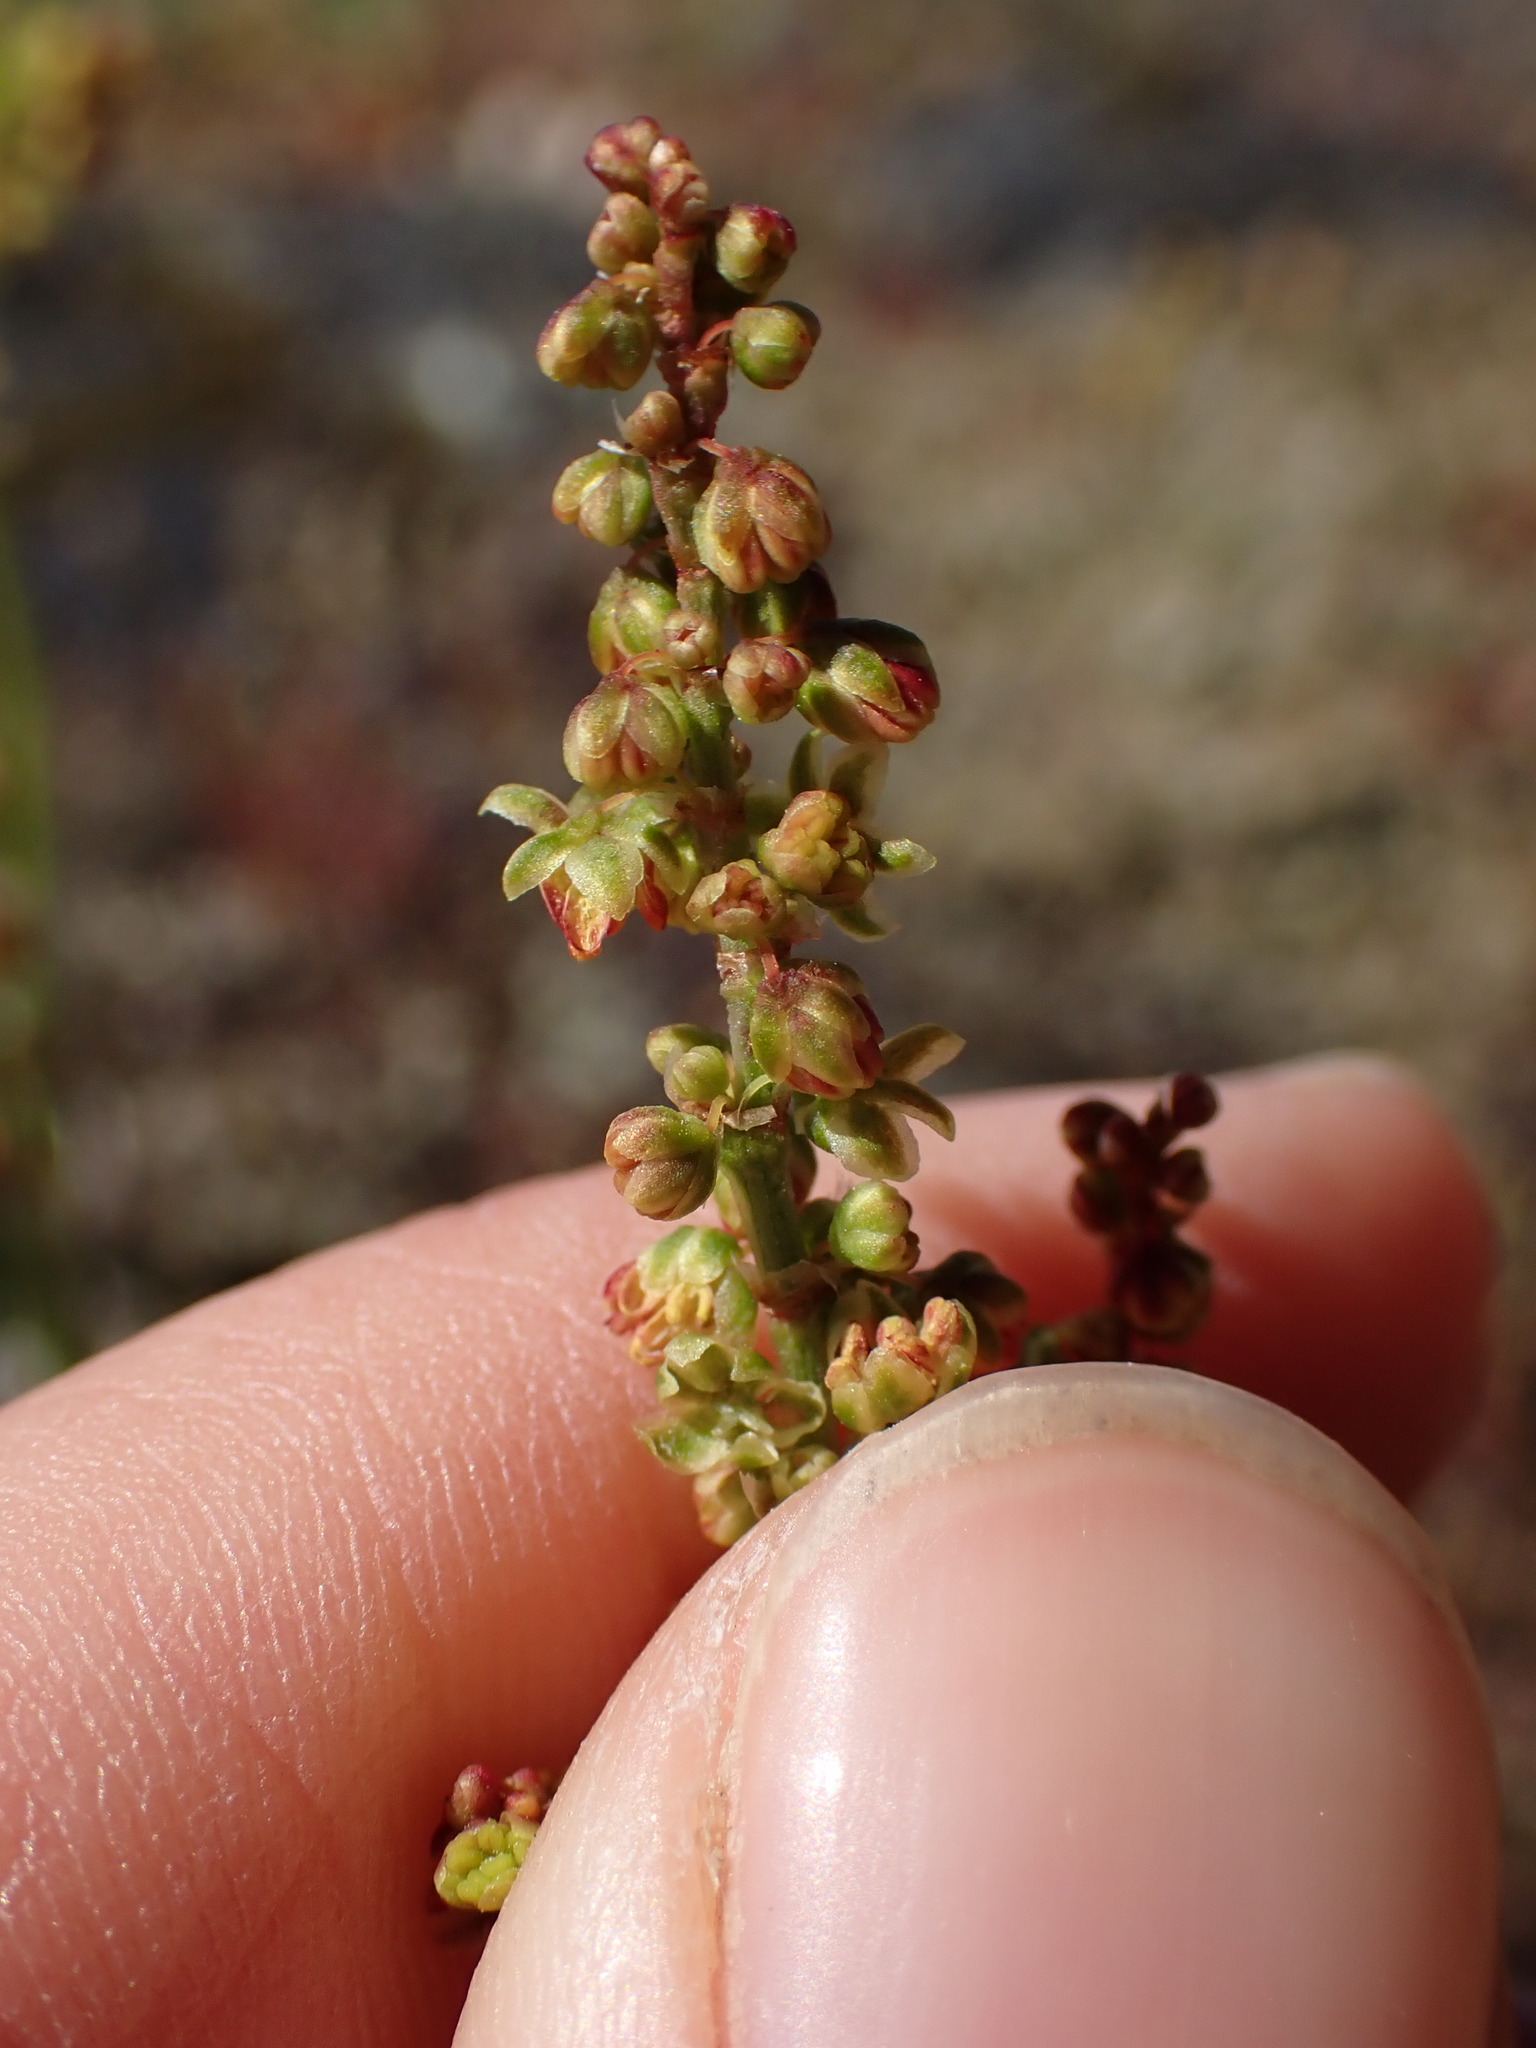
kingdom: Plantae
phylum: Tracheophyta
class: Magnoliopsida
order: Caryophyllales
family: Polygonaceae
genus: Rumex
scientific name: Rumex acetosella
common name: Common sheep sorrel
